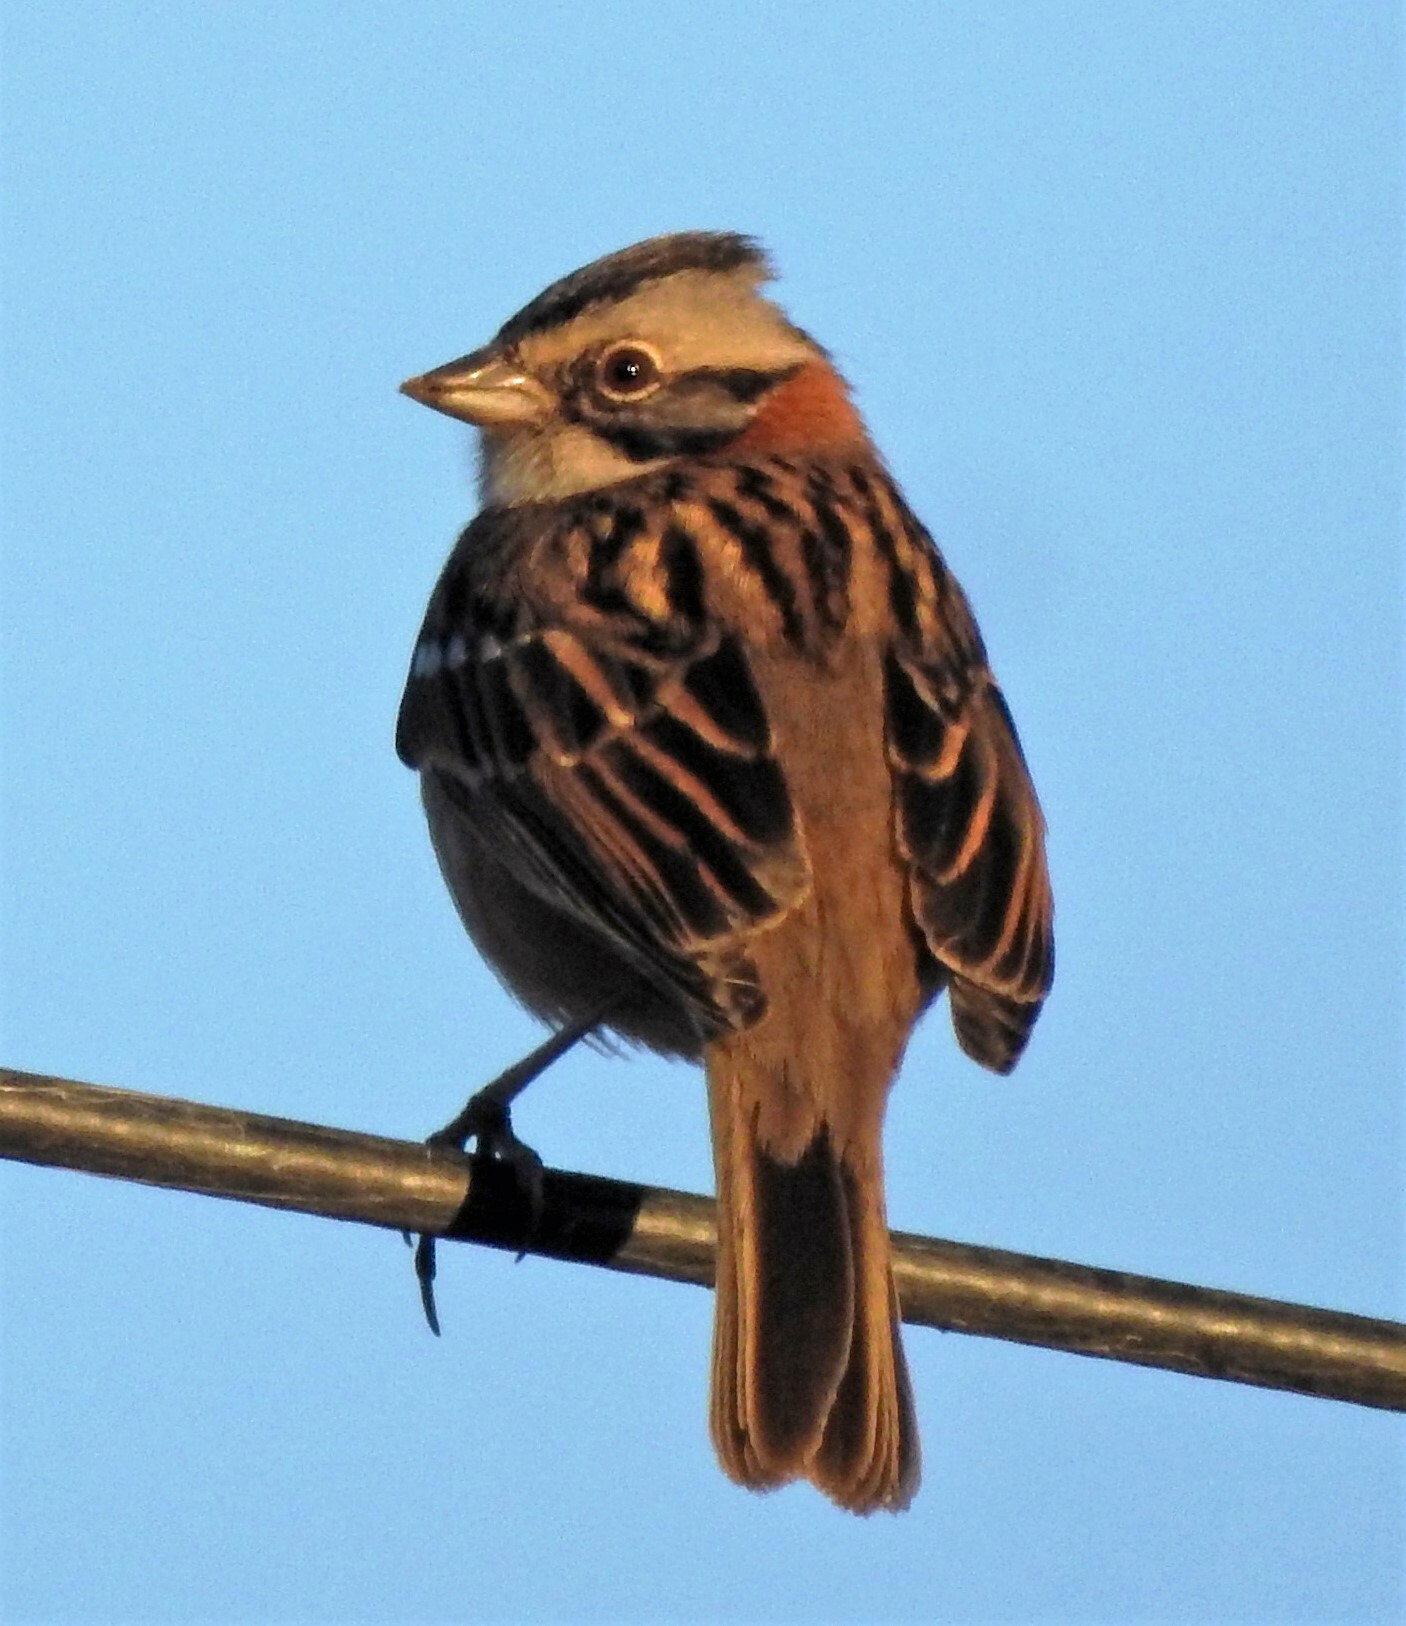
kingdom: Animalia
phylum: Chordata
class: Aves
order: Passeriformes
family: Passerellidae
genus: Zonotrichia
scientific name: Zonotrichia capensis
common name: Rufous-collared sparrow
